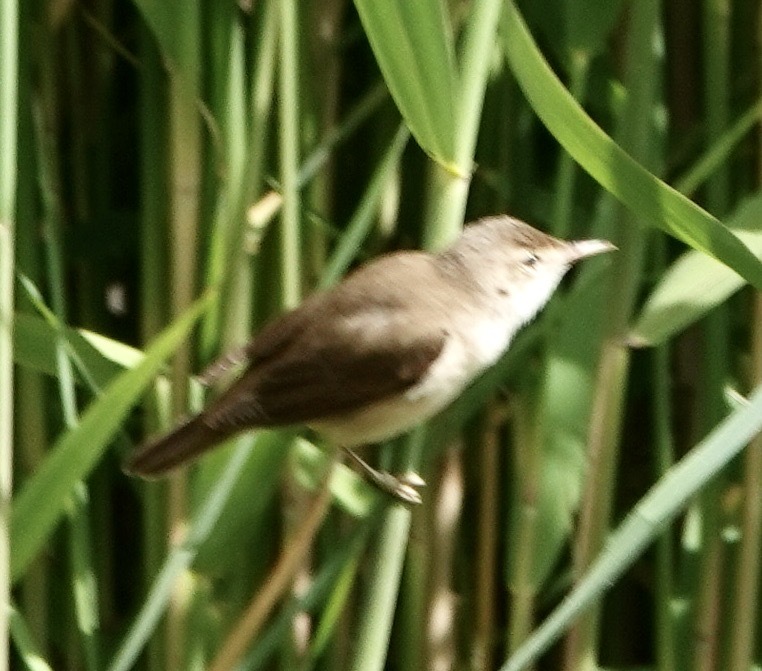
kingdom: Animalia
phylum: Chordata
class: Aves
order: Passeriformes
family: Acrocephalidae
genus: Acrocephalus
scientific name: Acrocephalus scirpaceus
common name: Eurasian reed warbler
